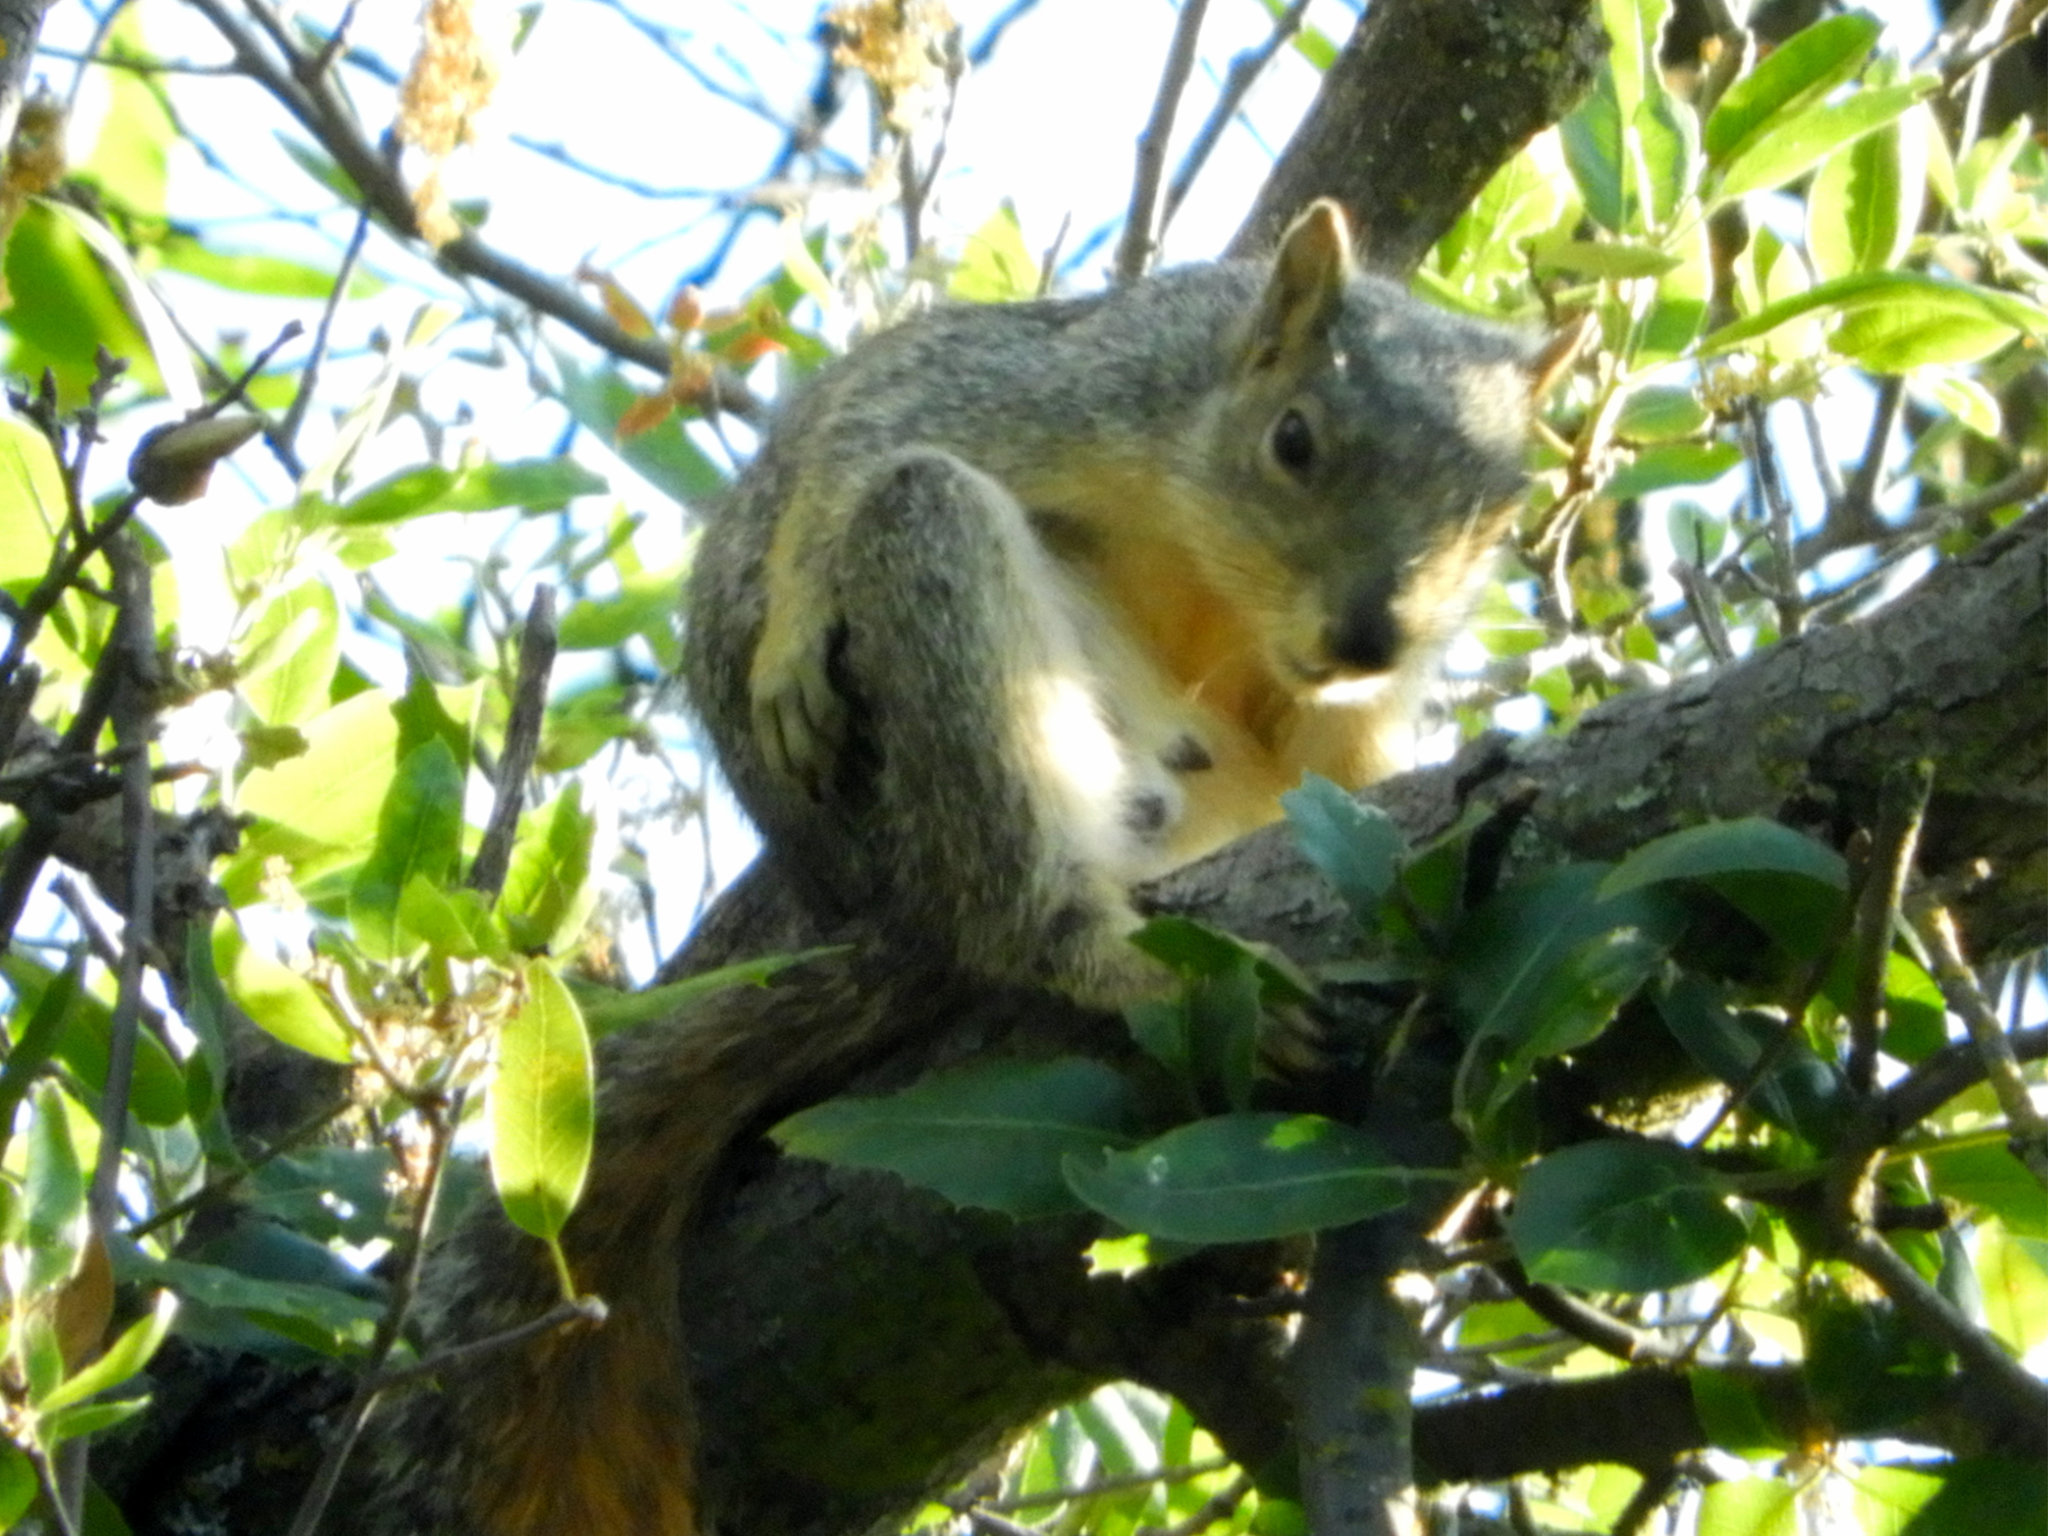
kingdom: Animalia
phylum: Chordata
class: Mammalia
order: Rodentia
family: Sciuridae
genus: Sciurus
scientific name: Sciurus niger
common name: Fox squirrel
